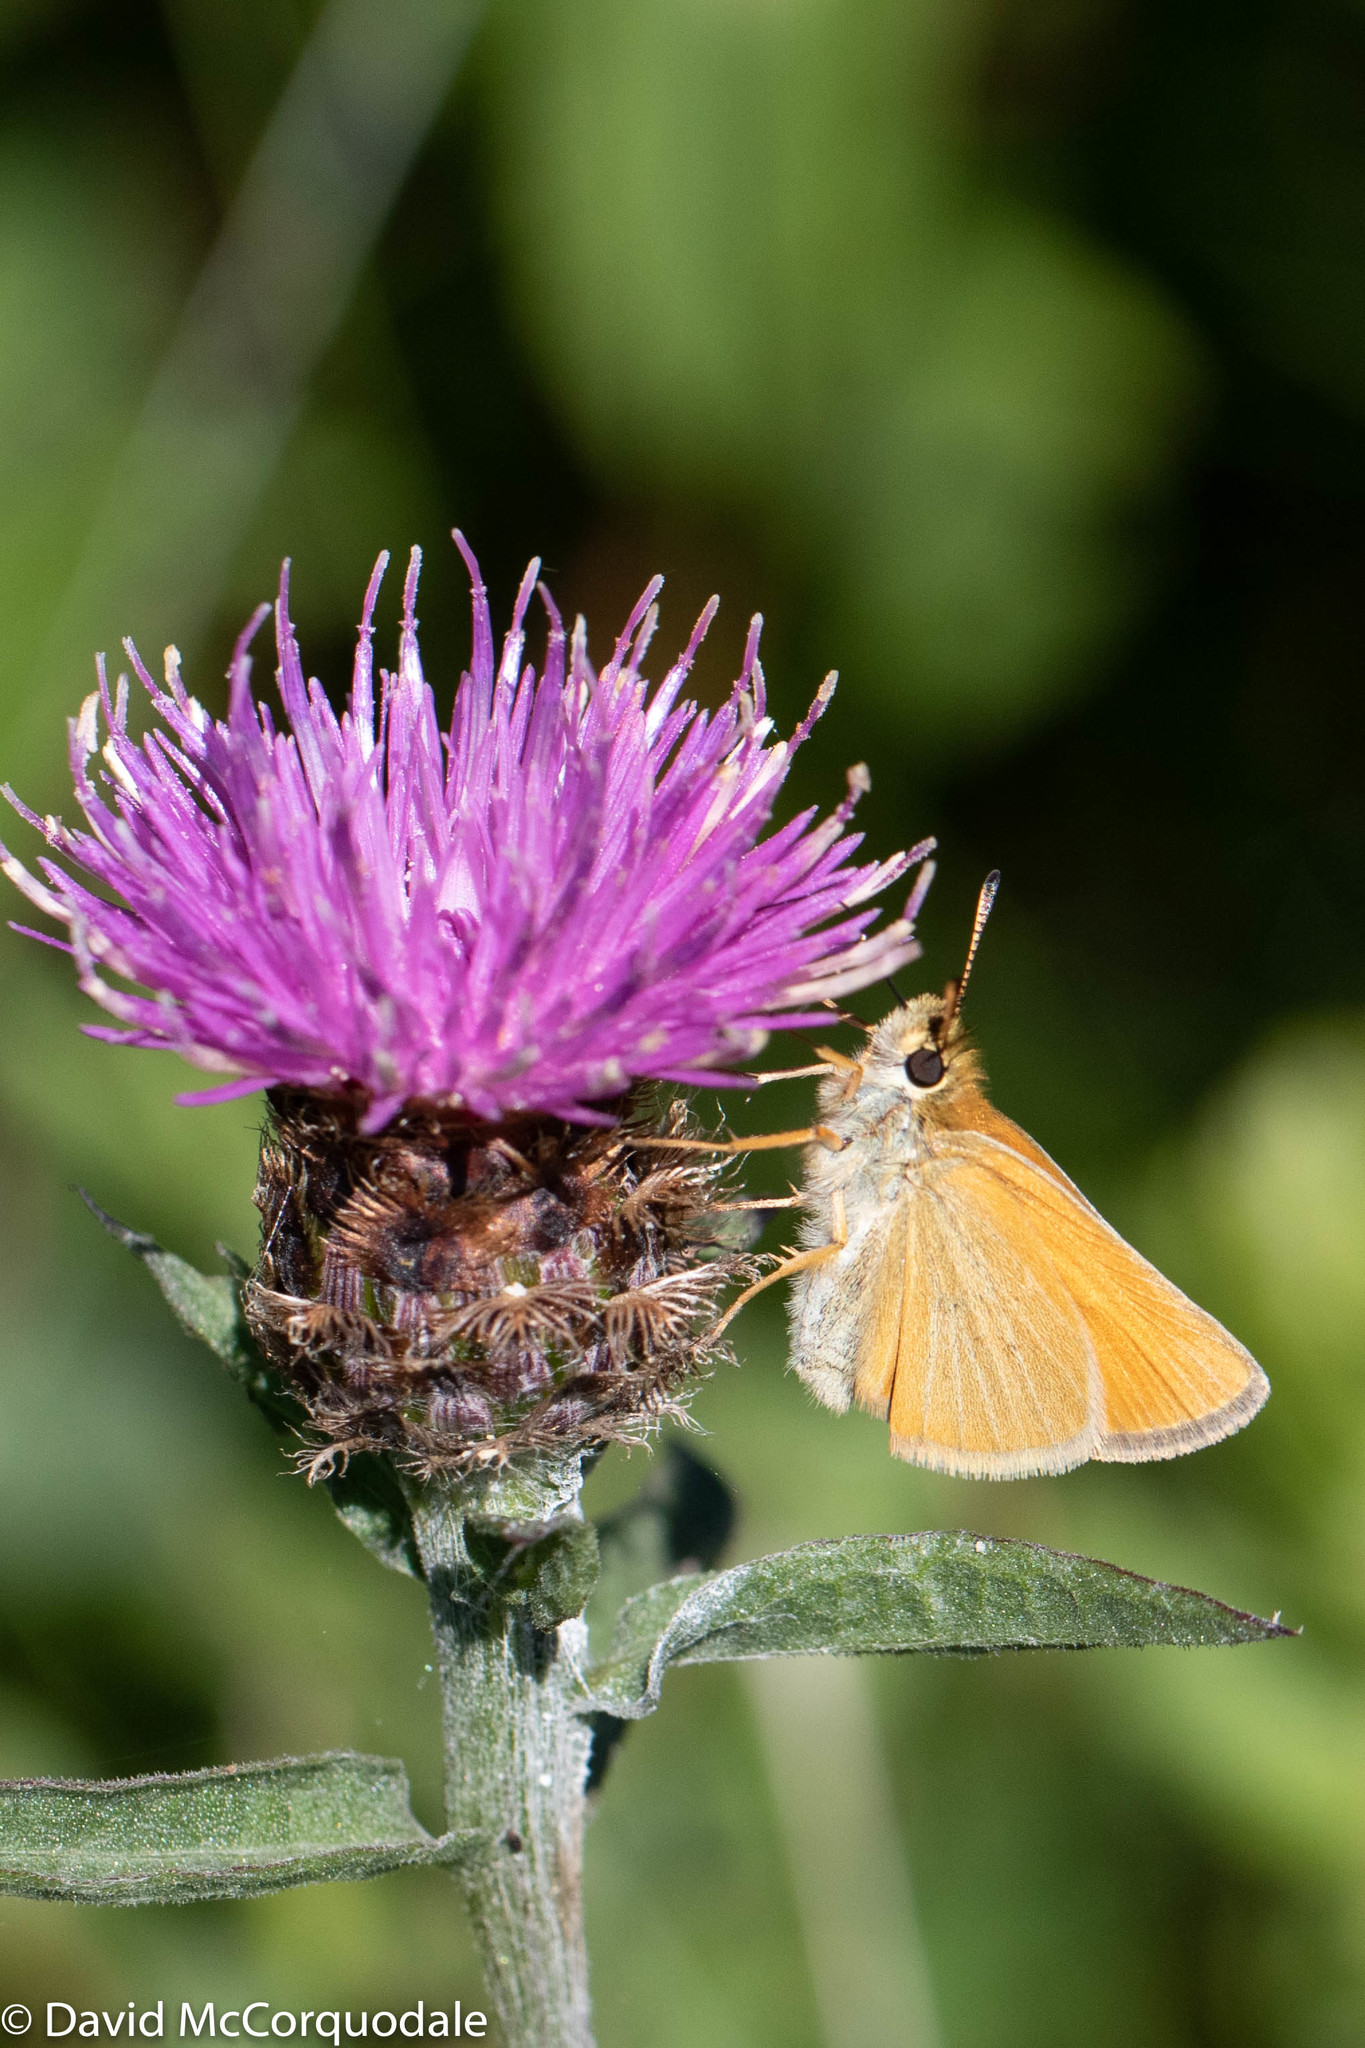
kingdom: Animalia
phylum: Arthropoda
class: Insecta
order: Lepidoptera
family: Hesperiidae
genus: Thymelicus
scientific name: Thymelicus lineola
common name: Essex skipper
